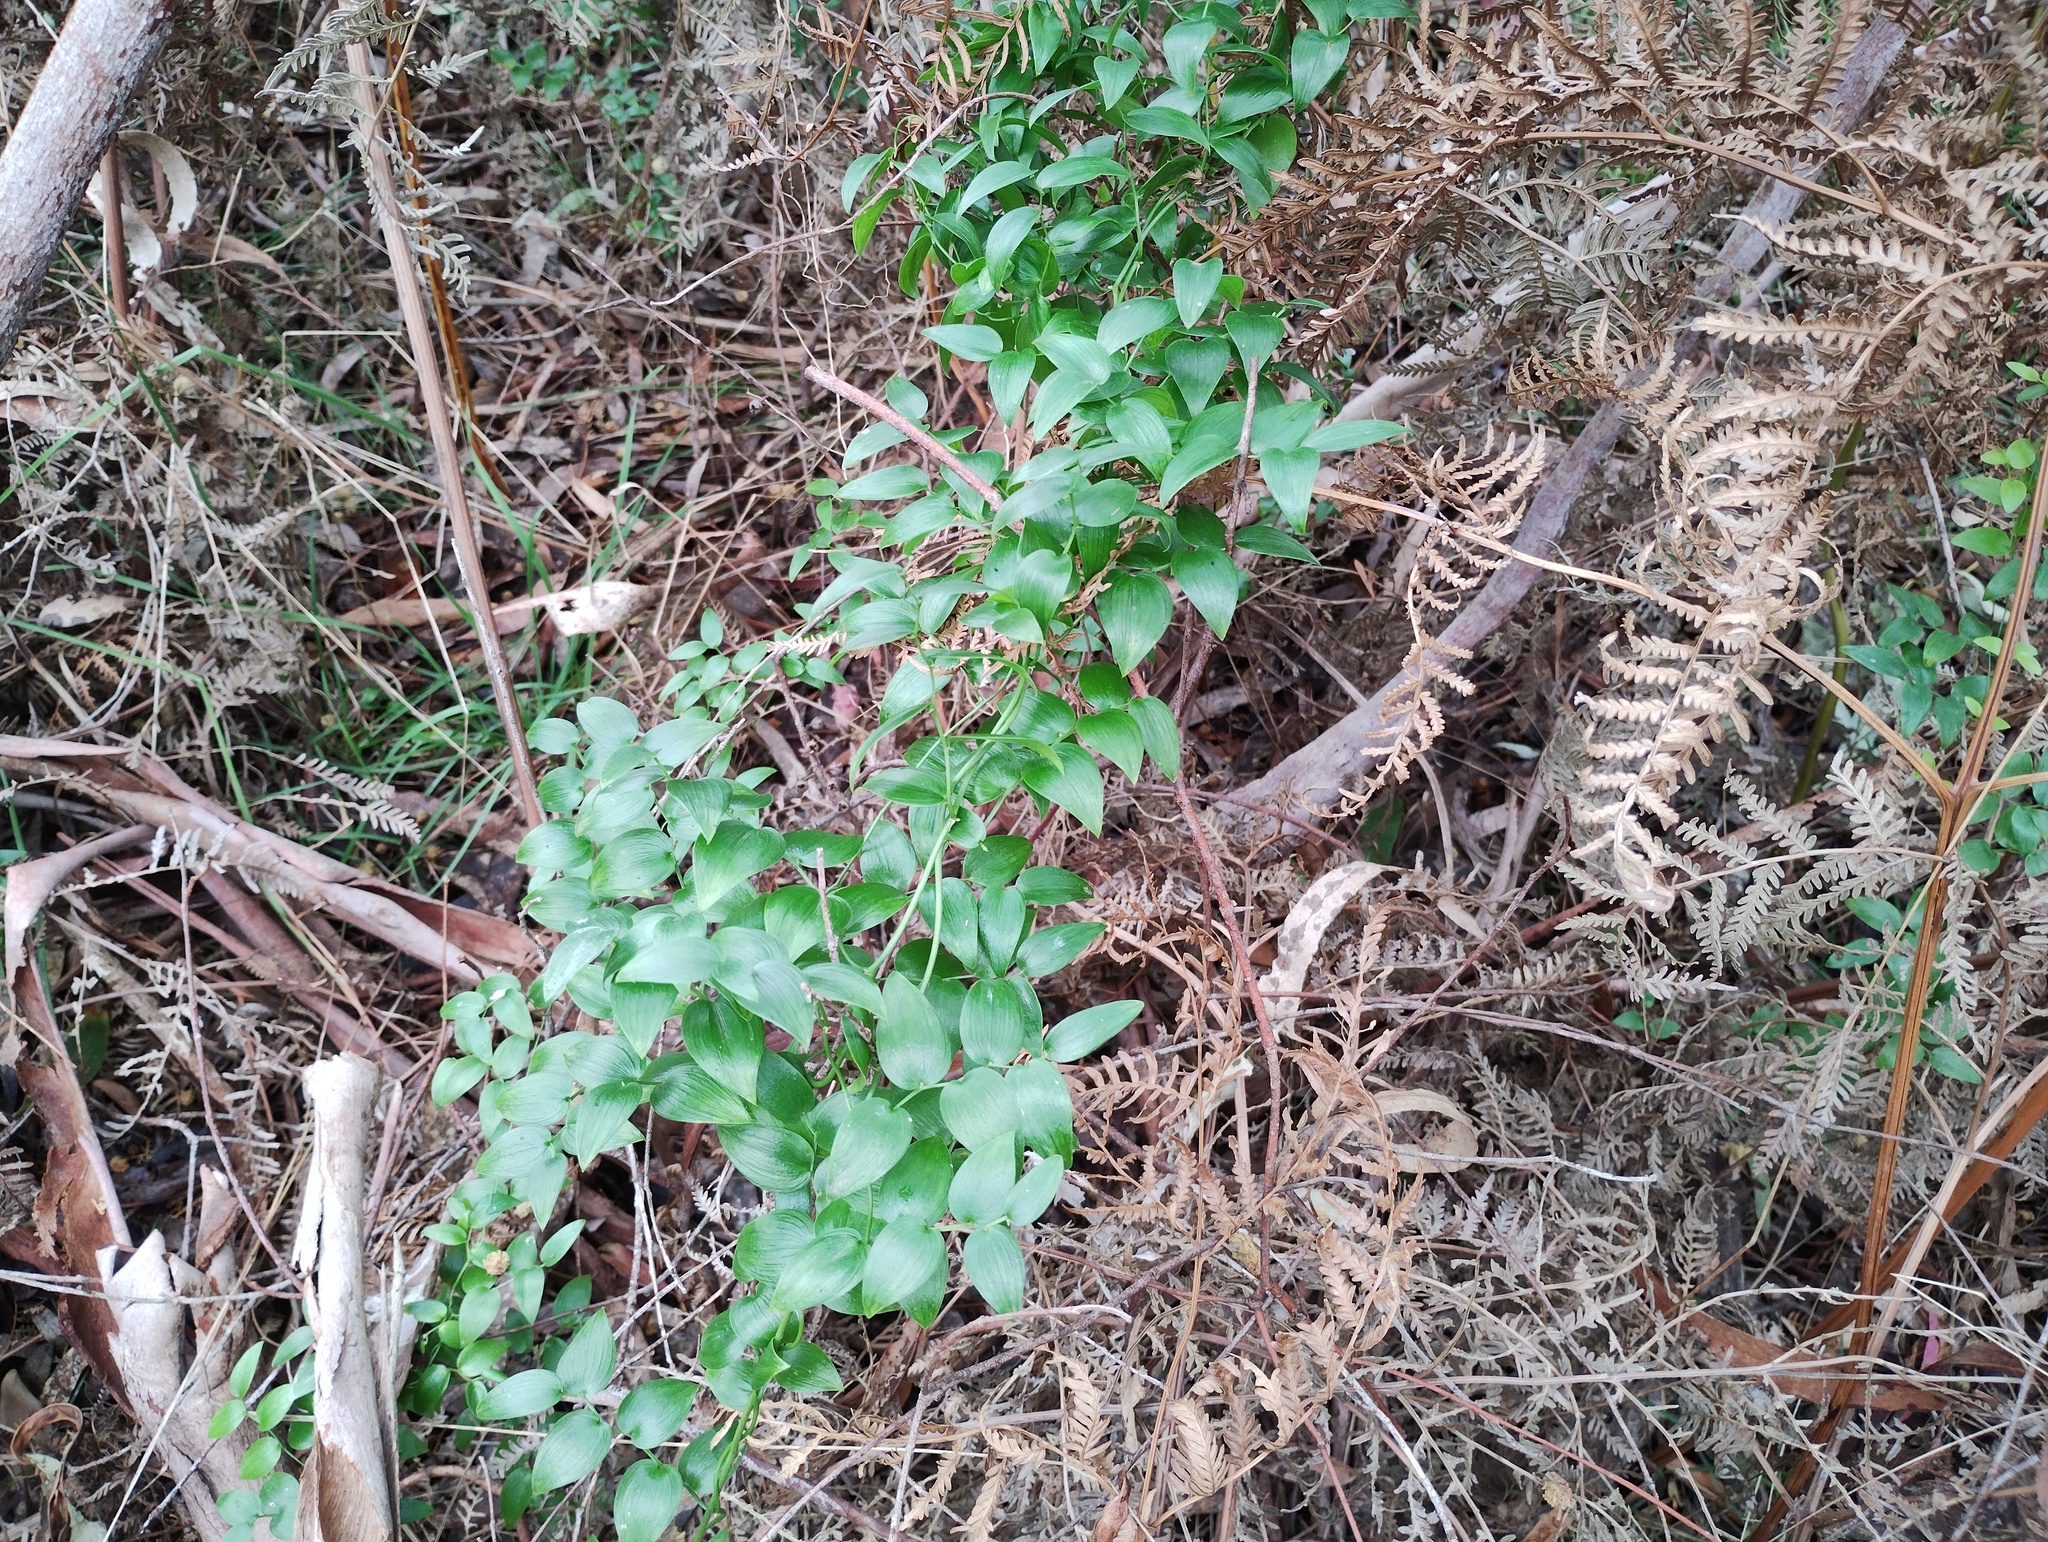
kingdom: Plantae
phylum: Tracheophyta
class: Liliopsida
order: Asparagales
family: Asparagaceae
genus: Asparagus
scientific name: Asparagus asparagoides
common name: African asparagus fern
